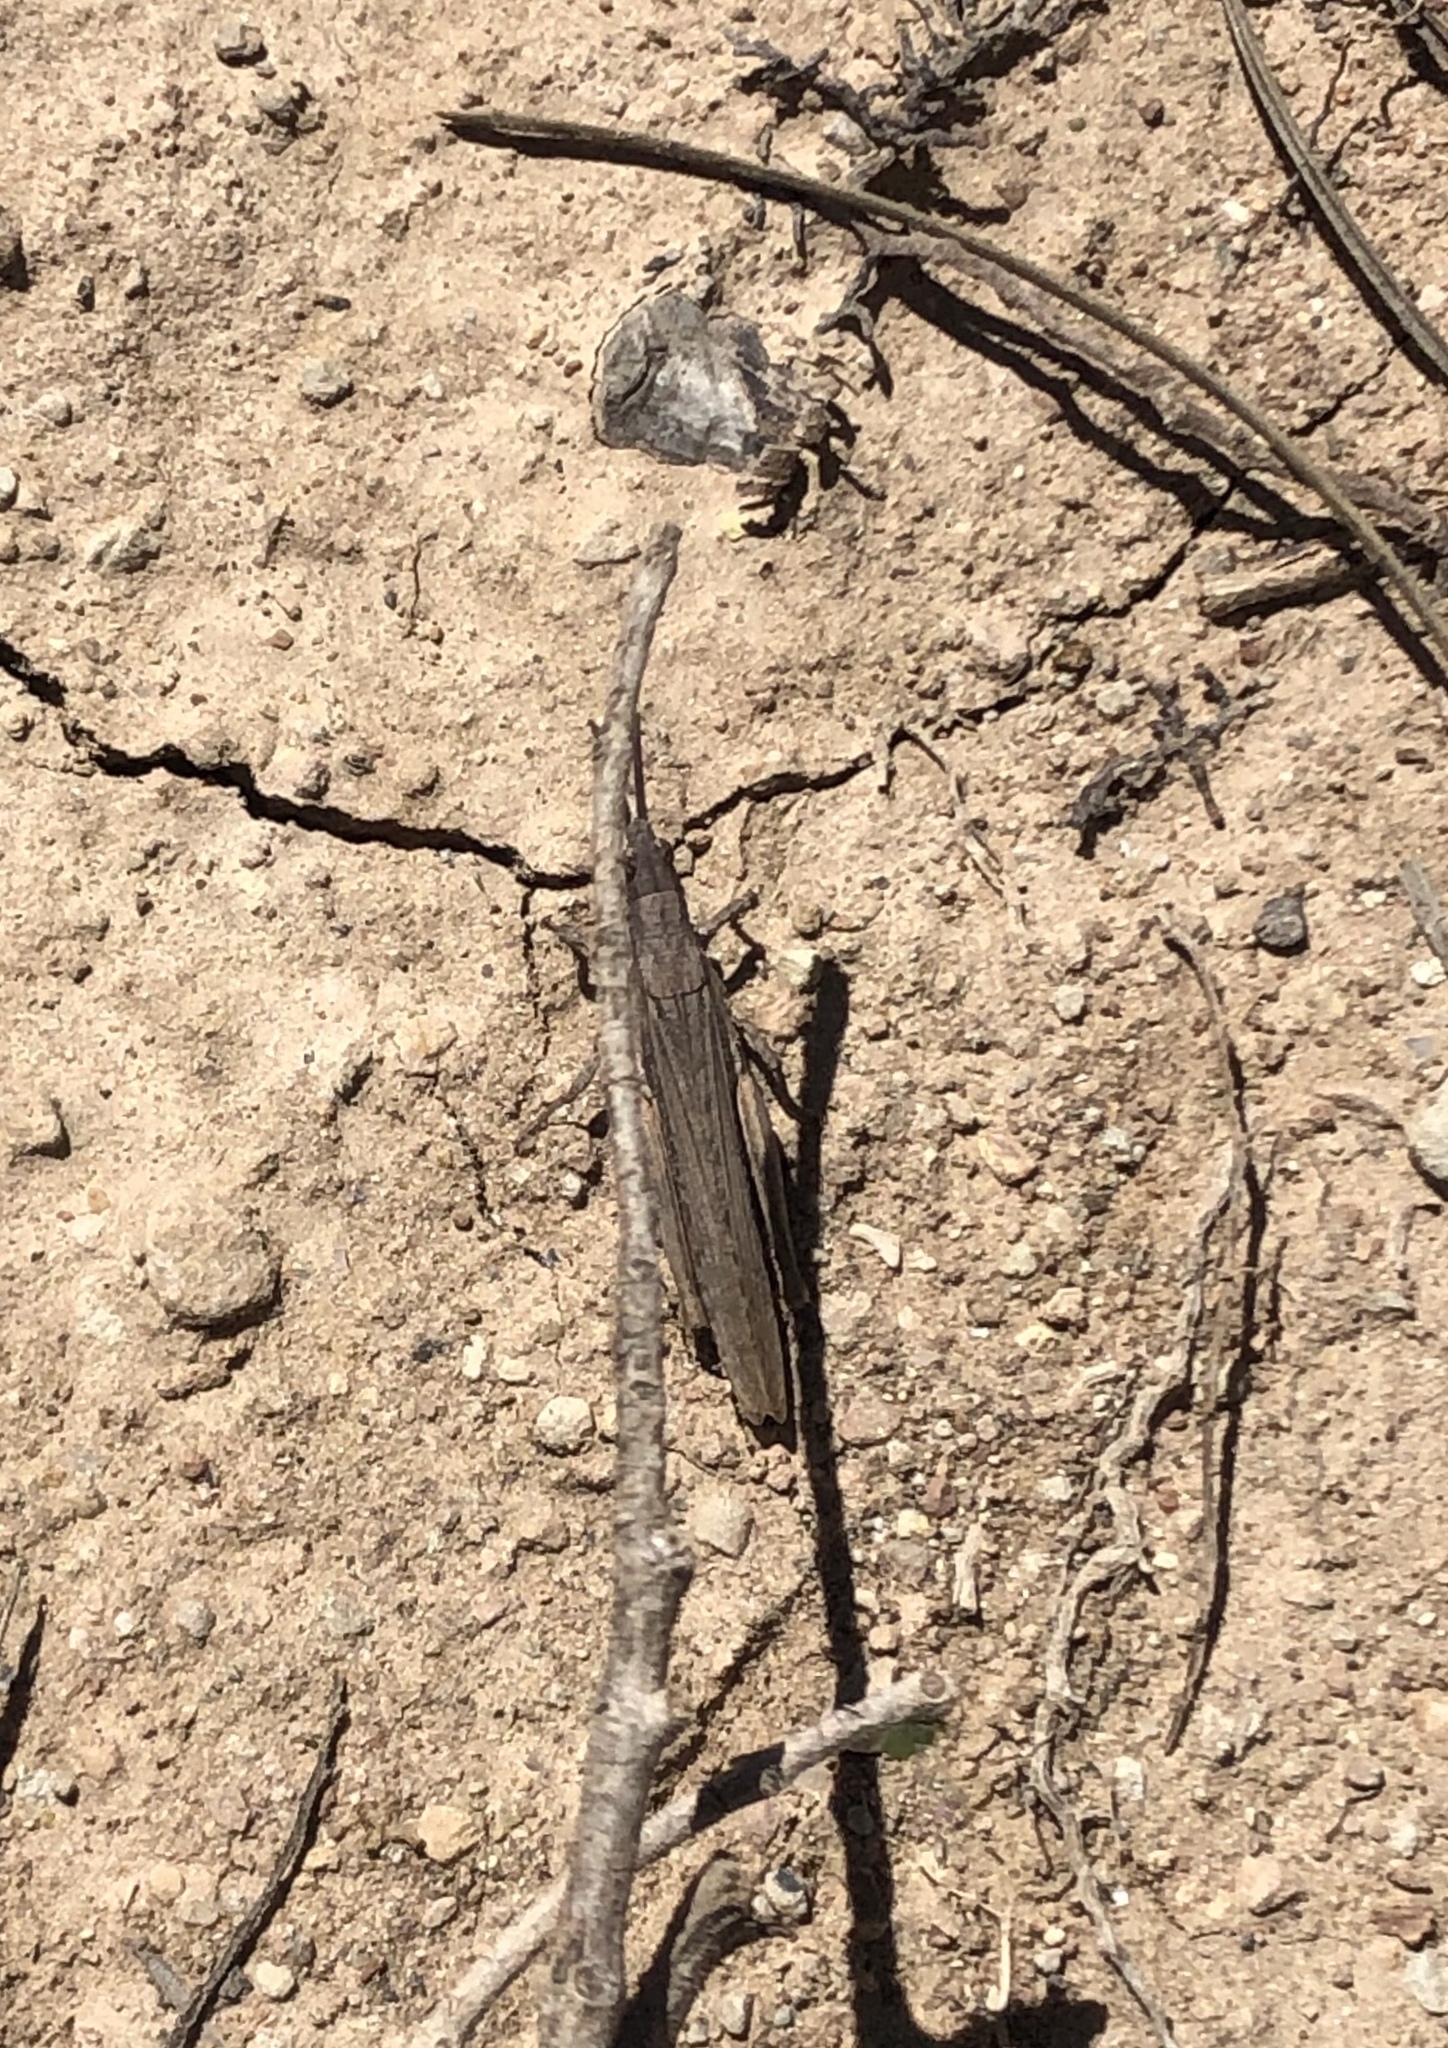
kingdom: Animalia
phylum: Arthropoda
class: Insecta
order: Orthoptera
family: Pyrgomorphidae
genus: Pyrgomorpha
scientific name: Pyrgomorpha conica
